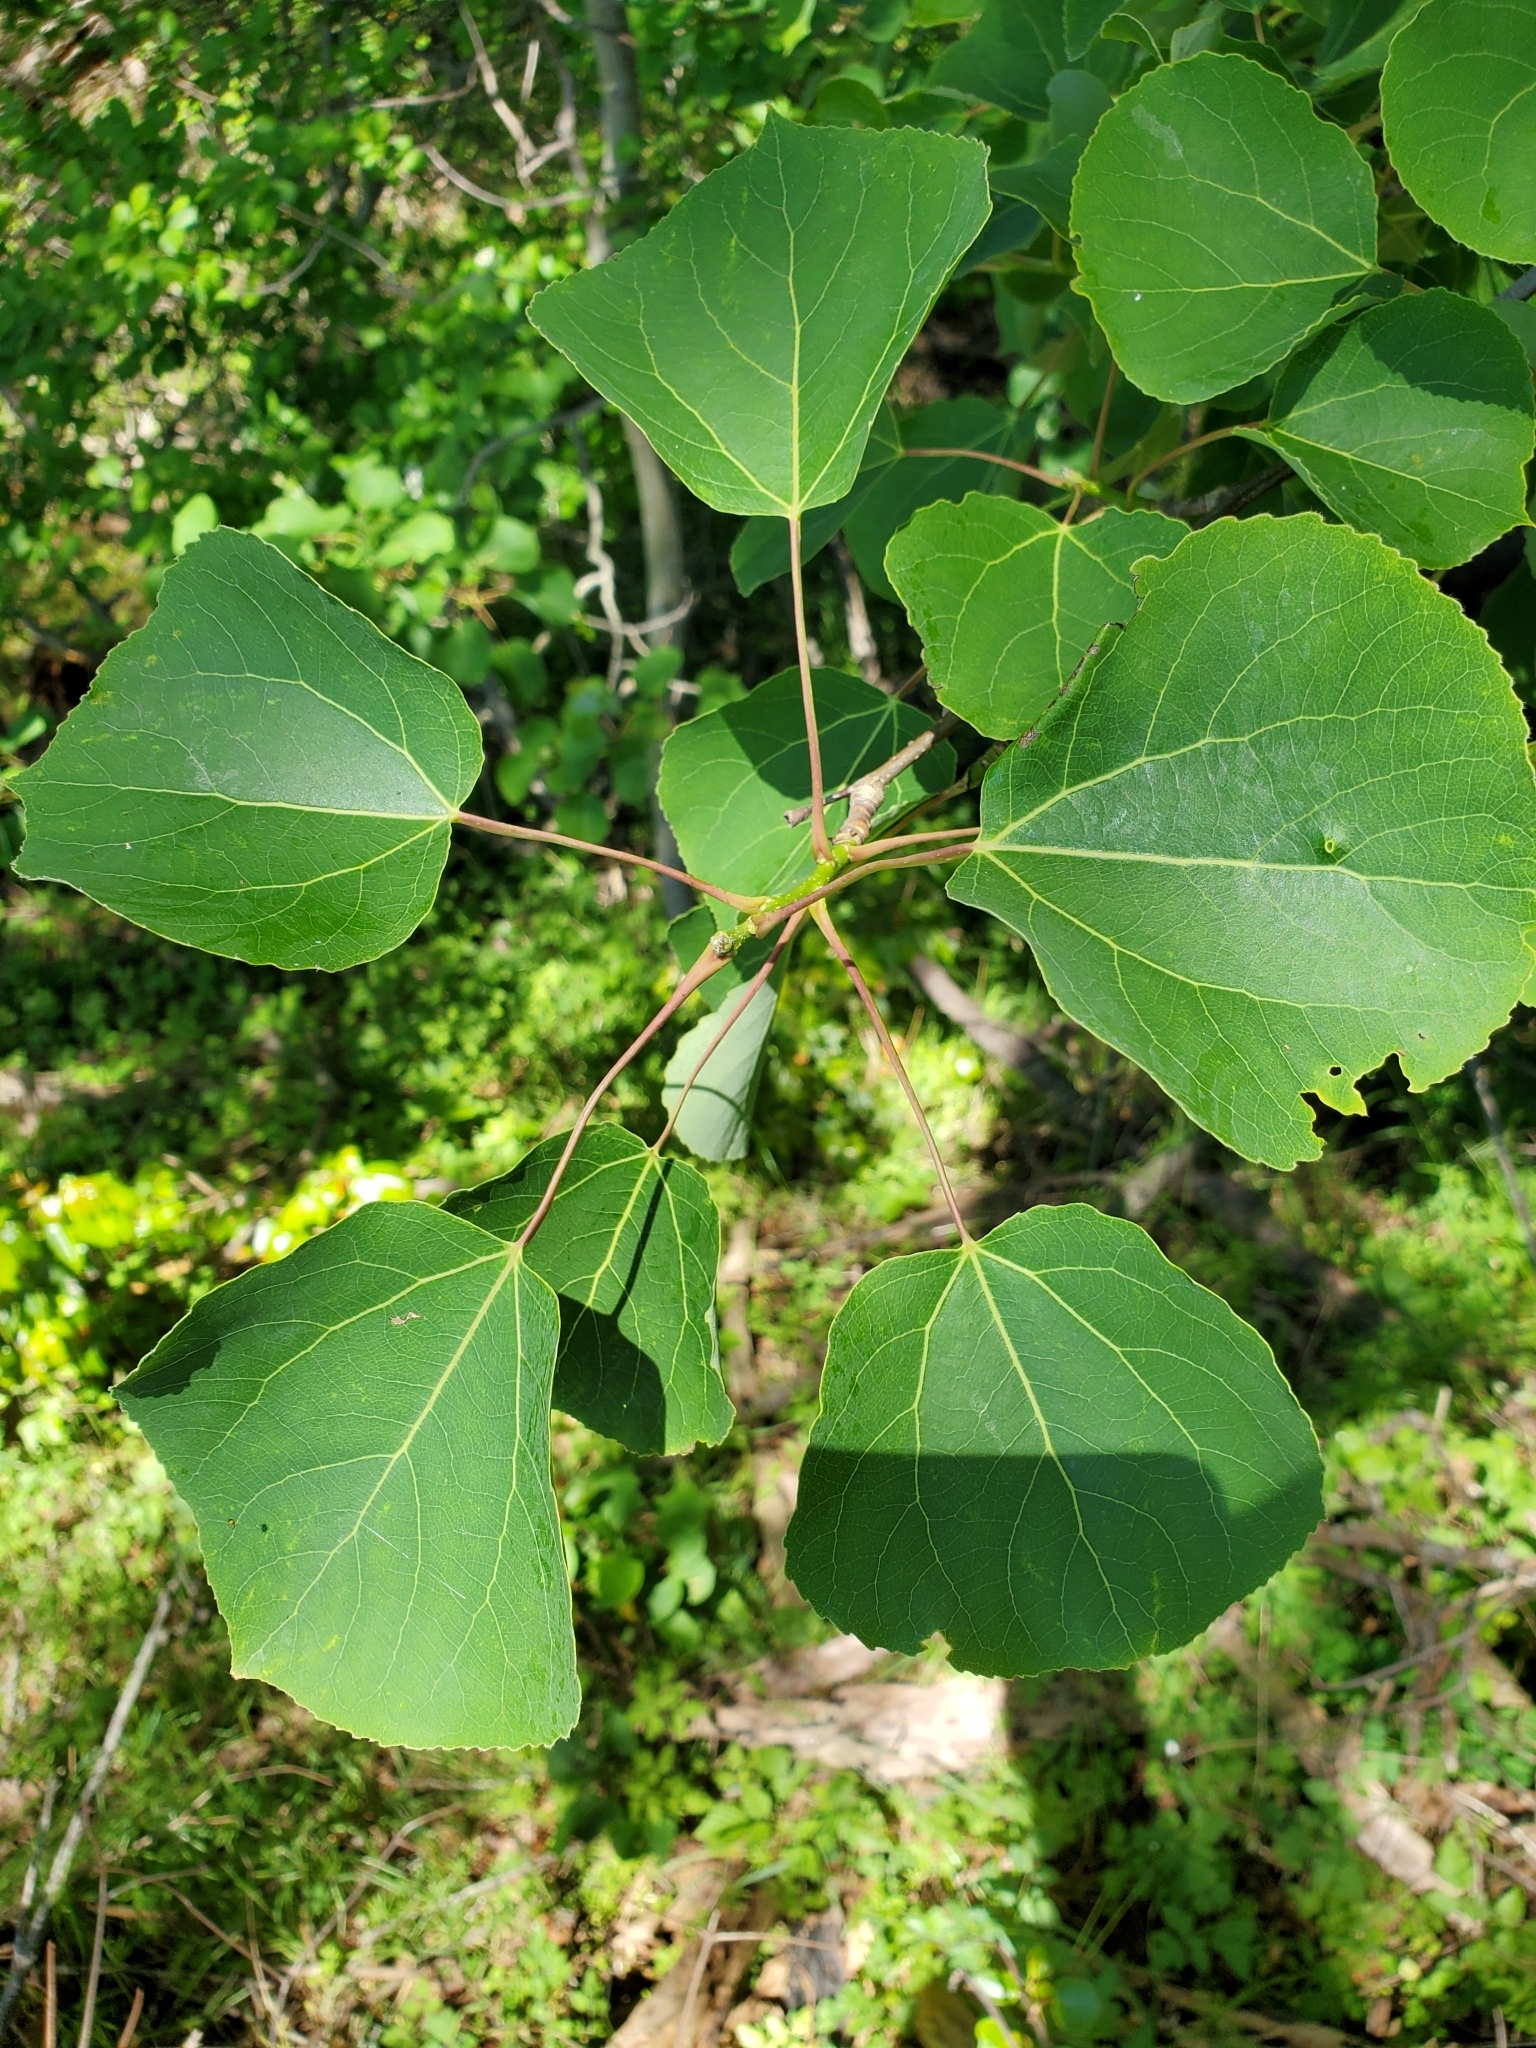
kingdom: Plantae
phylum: Tracheophyta
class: Magnoliopsida
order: Malpighiales
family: Salicaceae
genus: Populus
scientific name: Populus tremuloides
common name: Quaking aspen
